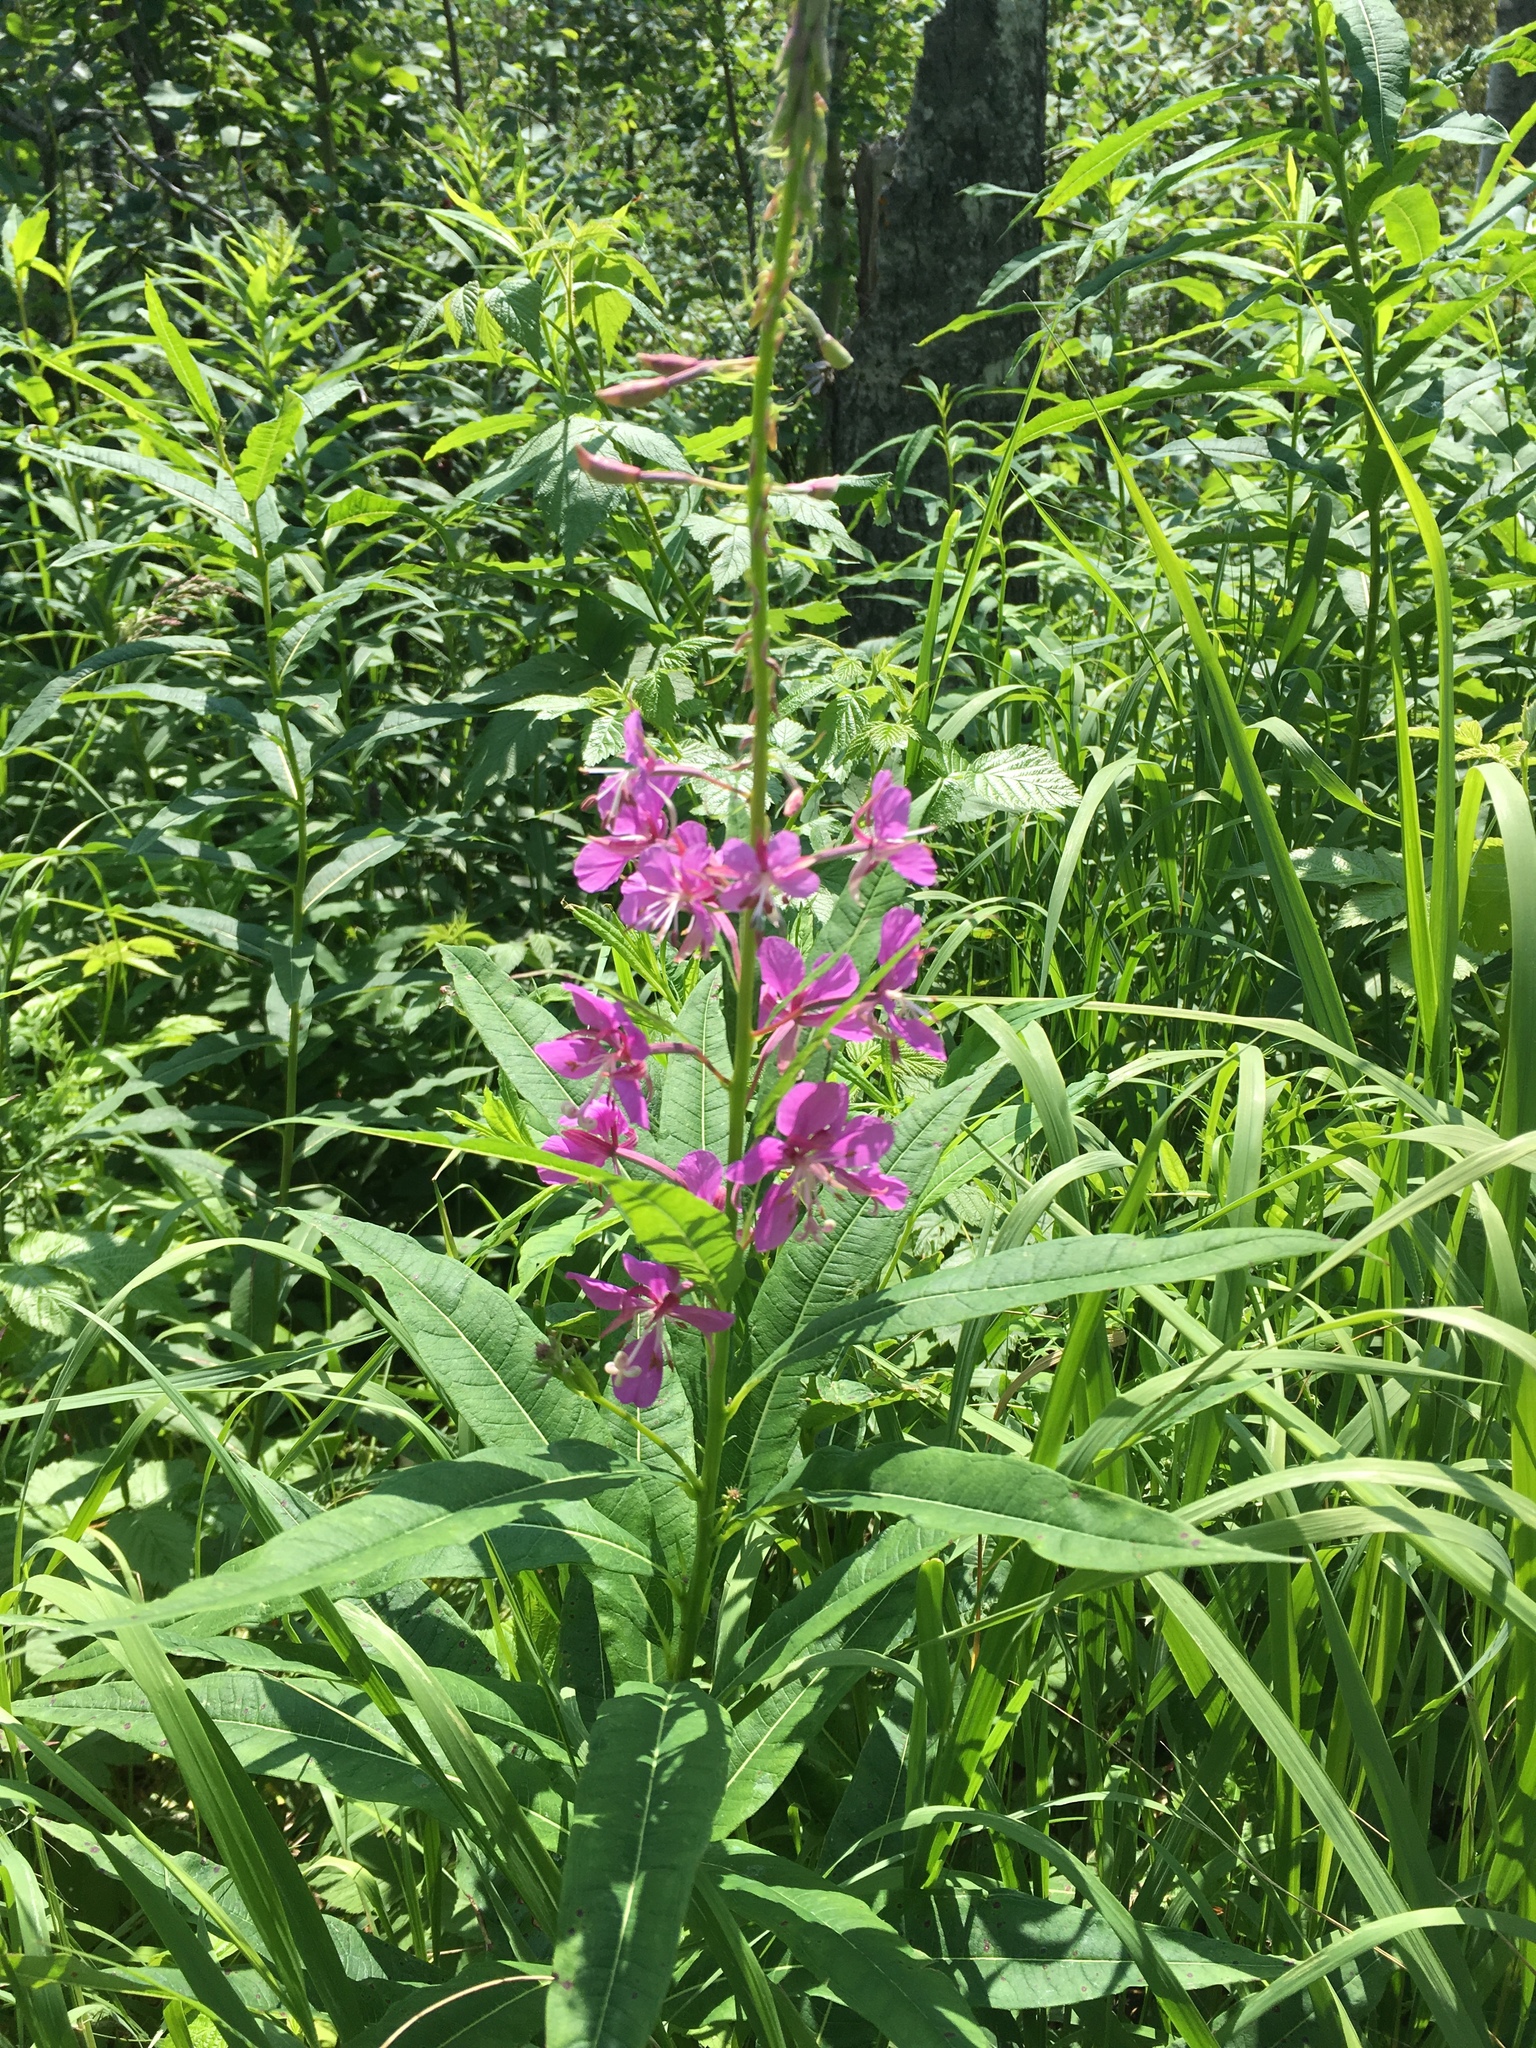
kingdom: Plantae
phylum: Tracheophyta
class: Magnoliopsida
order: Myrtales
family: Onagraceae
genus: Chamaenerion
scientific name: Chamaenerion angustifolium
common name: Fireweed
